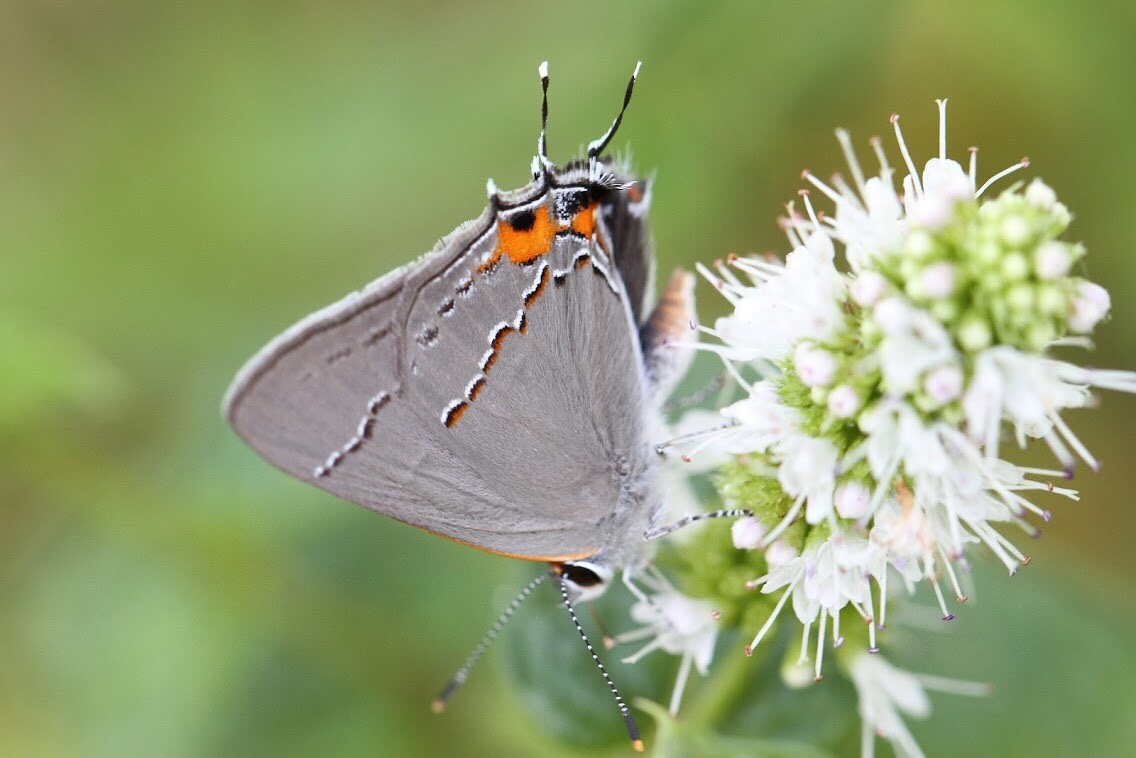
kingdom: Animalia
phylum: Arthropoda
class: Insecta
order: Lepidoptera
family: Lycaenidae
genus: Strymon
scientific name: Strymon melinus
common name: Gray hairstreak
